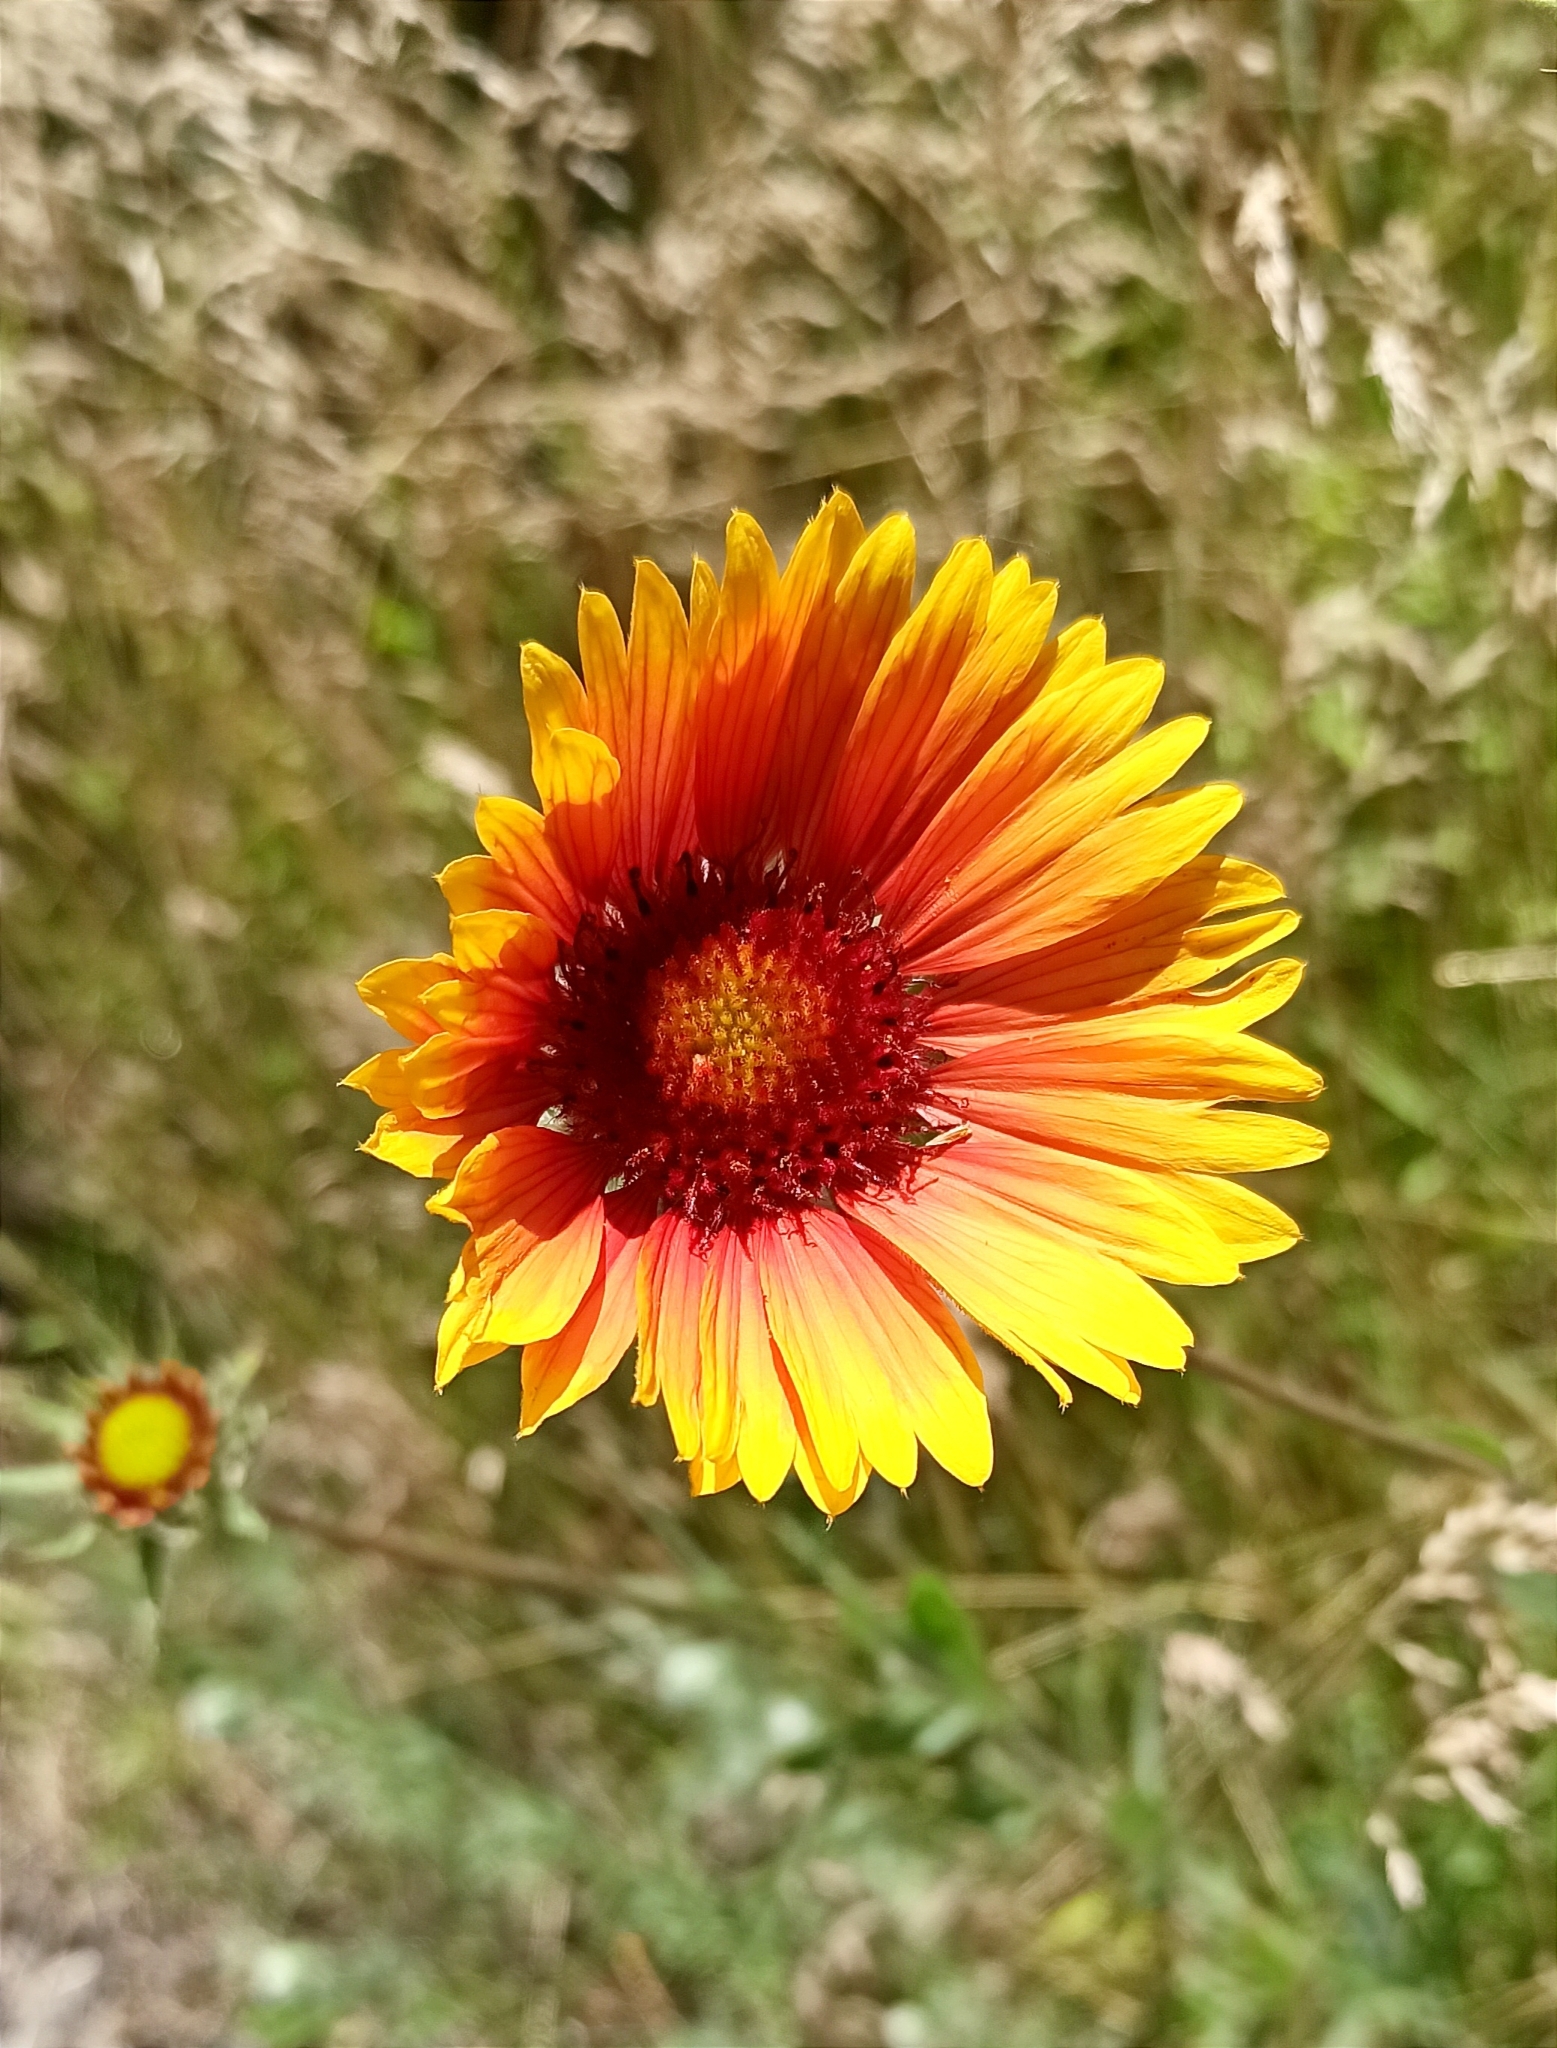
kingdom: Plantae
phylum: Tracheophyta
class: Magnoliopsida
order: Asterales
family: Asteraceae
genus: Gaillardia
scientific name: Gaillardia aristata
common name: Blanket-flower
